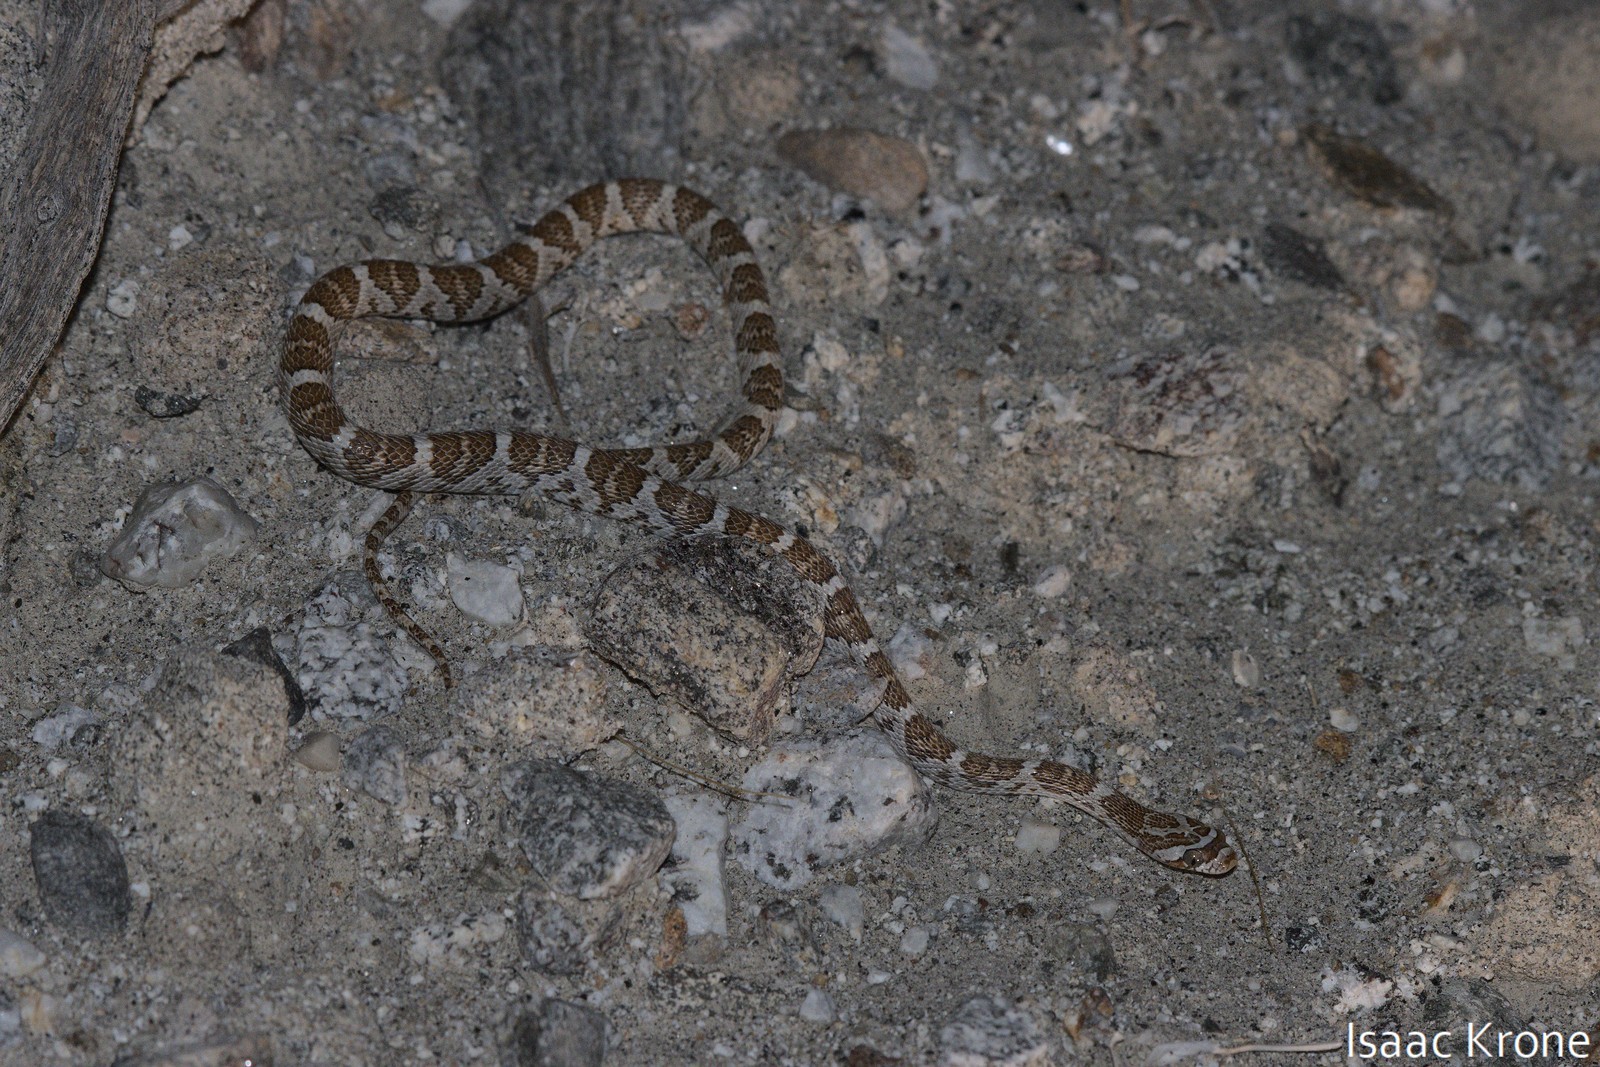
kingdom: Animalia
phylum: Chordata
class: Squamata
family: Colubridae
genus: Trimorphodon
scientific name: Trimorphodon lyrophanes
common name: Baja california lyre snake
